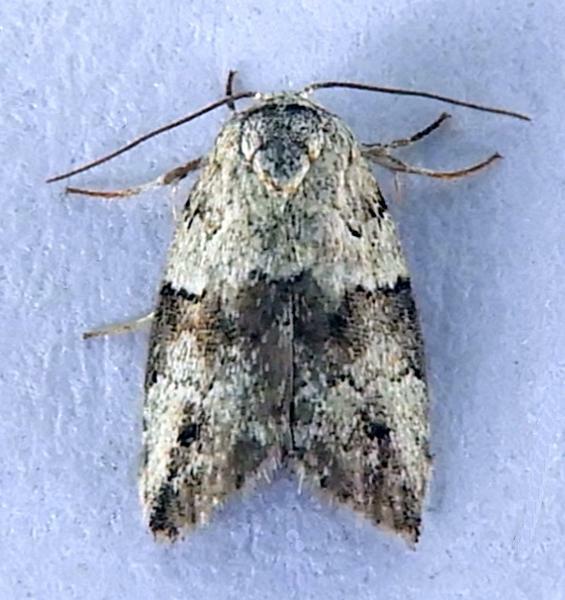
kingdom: Animalia
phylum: Arthropoda
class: Insecta
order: Lepidoptera
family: Nolidae
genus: Afrida
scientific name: Afrida ydatodes
